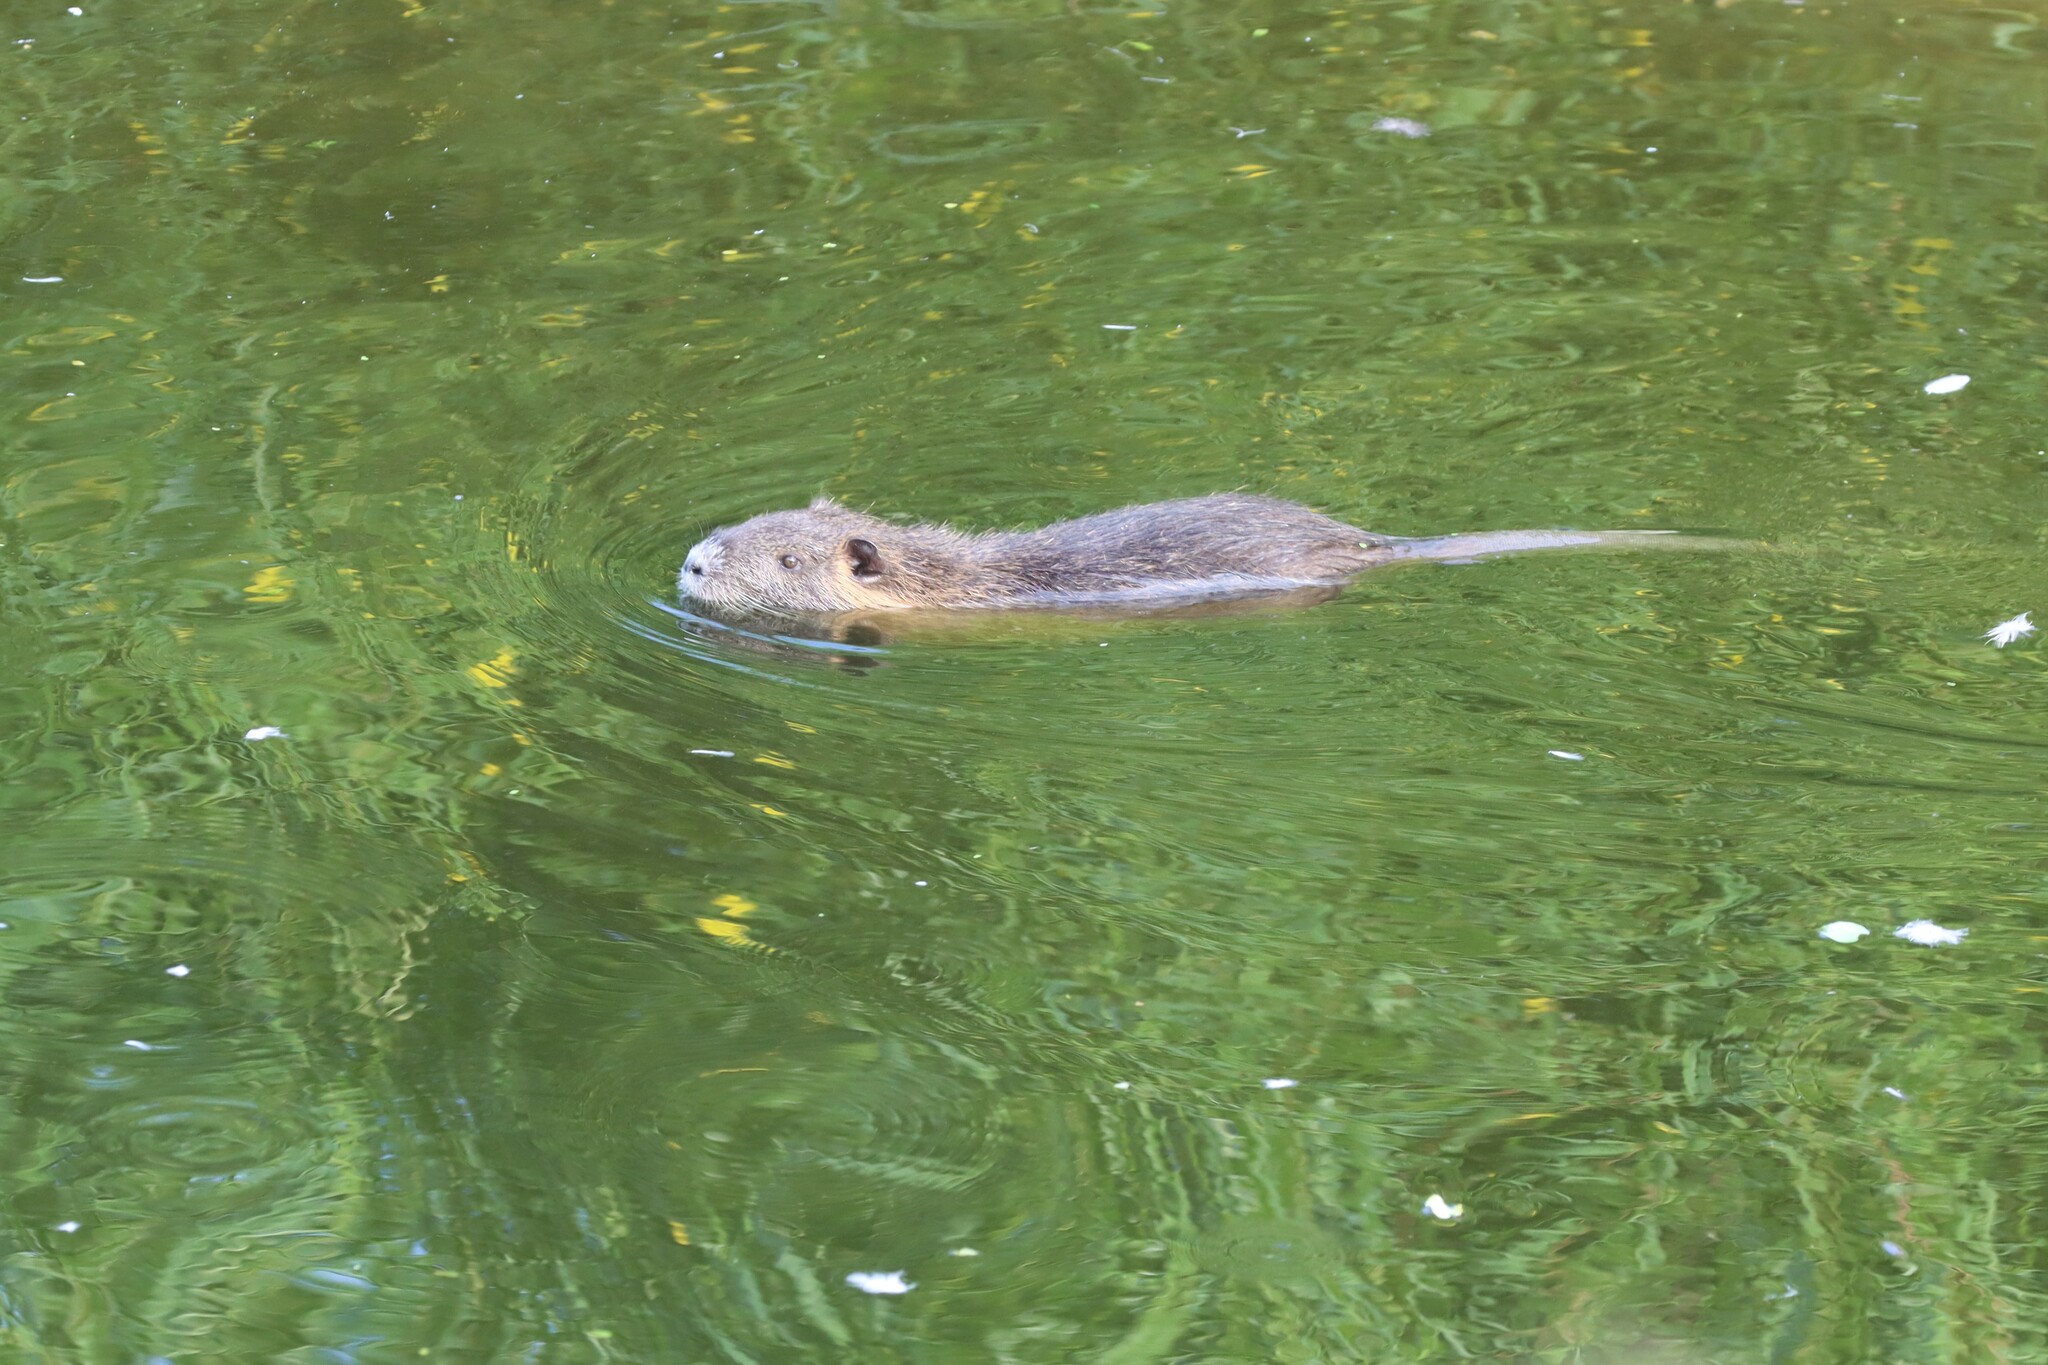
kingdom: Animalia
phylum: Chordata
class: Mammalia
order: Rodentia
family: Myocastoridae
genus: Myocastor
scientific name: Myocastor coypus
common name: Coypu
